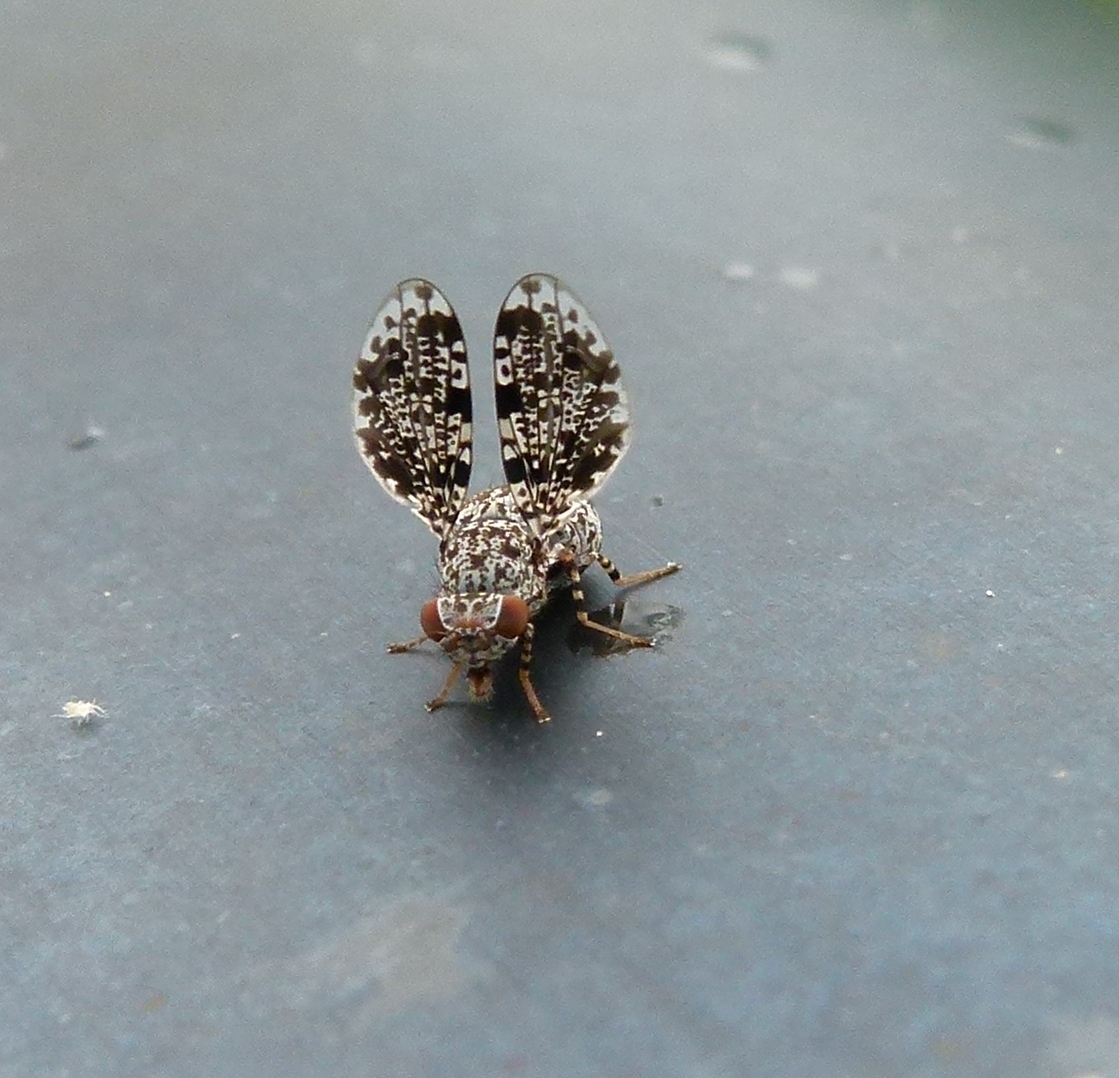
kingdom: Animalia
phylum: Arthropoda
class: Insecta
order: Diptera
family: Ulidiidae
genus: Callopistromyia
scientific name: Callopistromyia annulipes
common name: Peacock fly
